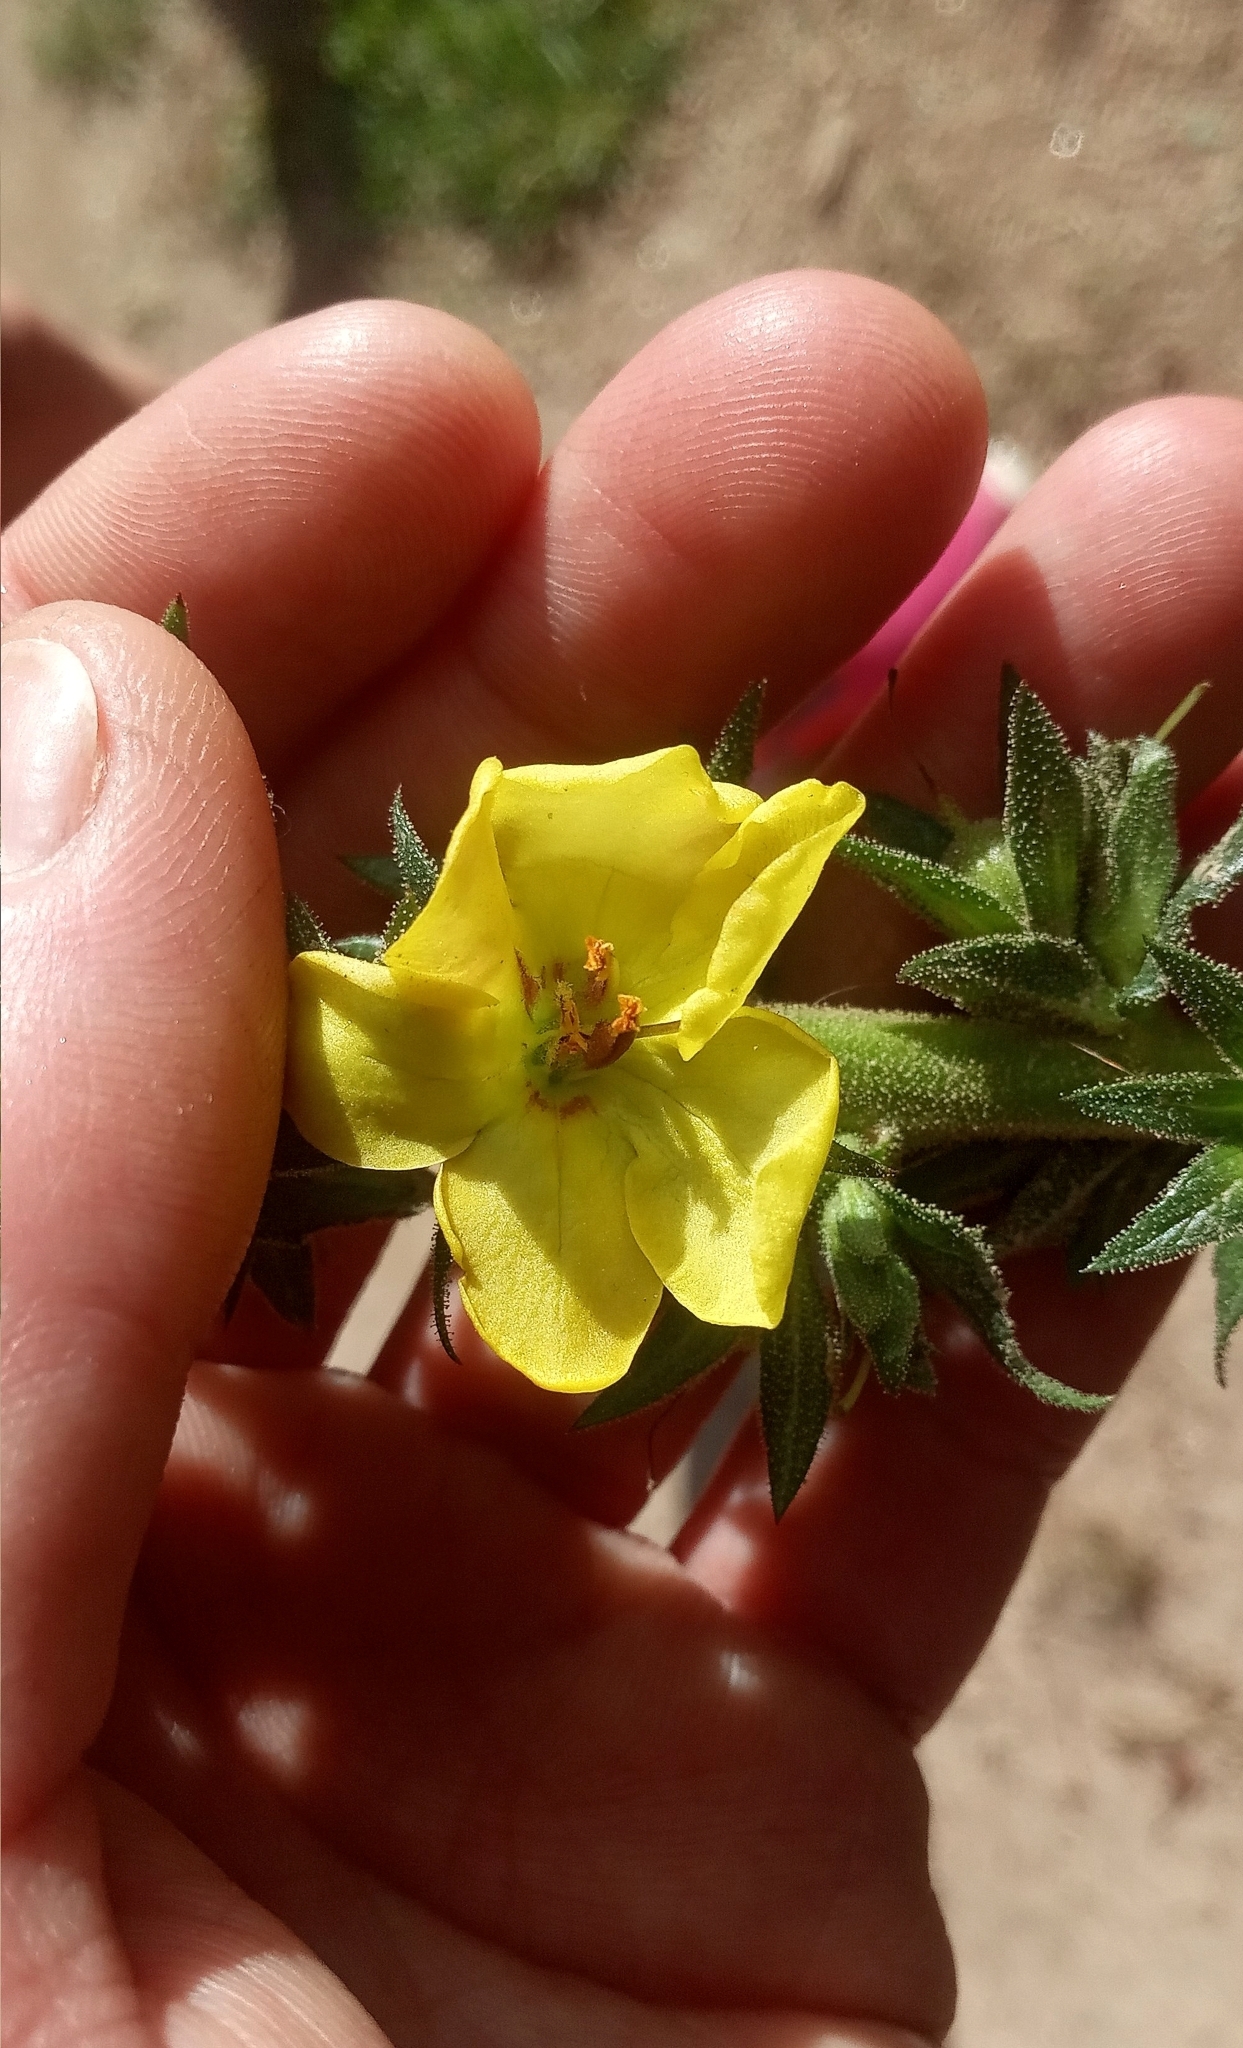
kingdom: Plantae
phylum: Tracheophyta
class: Magnoliopsida
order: Lamiales
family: Scrophulariaceae
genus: Verbascum
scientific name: Verbascum virgatum
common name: Twiggy mullein
